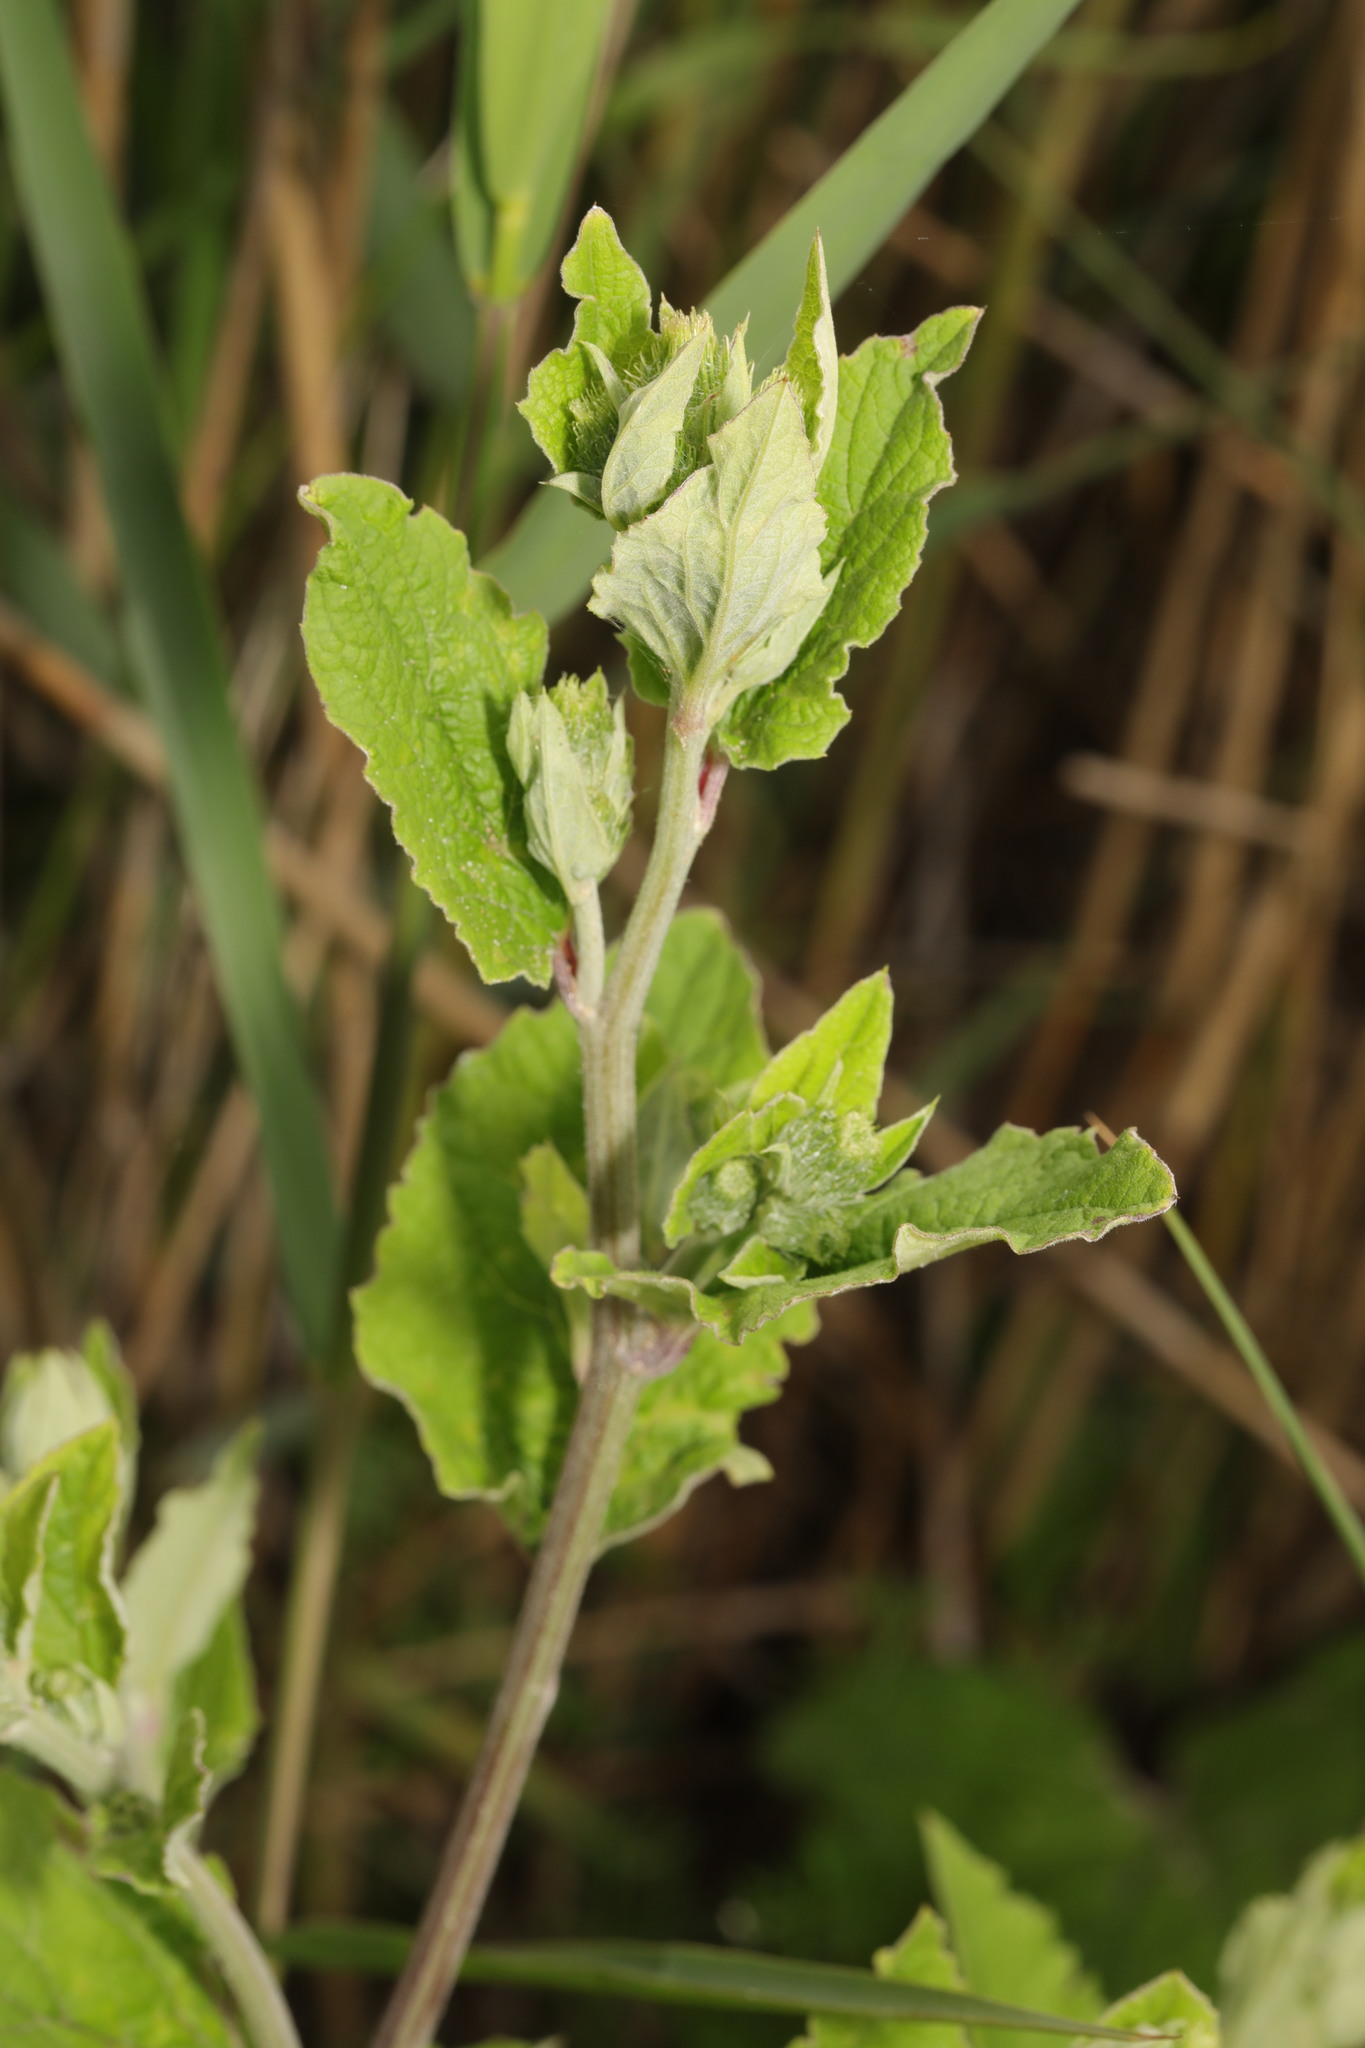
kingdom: Plantae
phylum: Tracheophyta
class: Magnoliopsida
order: Asterales
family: Asteraceae
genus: Arctium
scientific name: Arctium minus
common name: Lesser burdock
